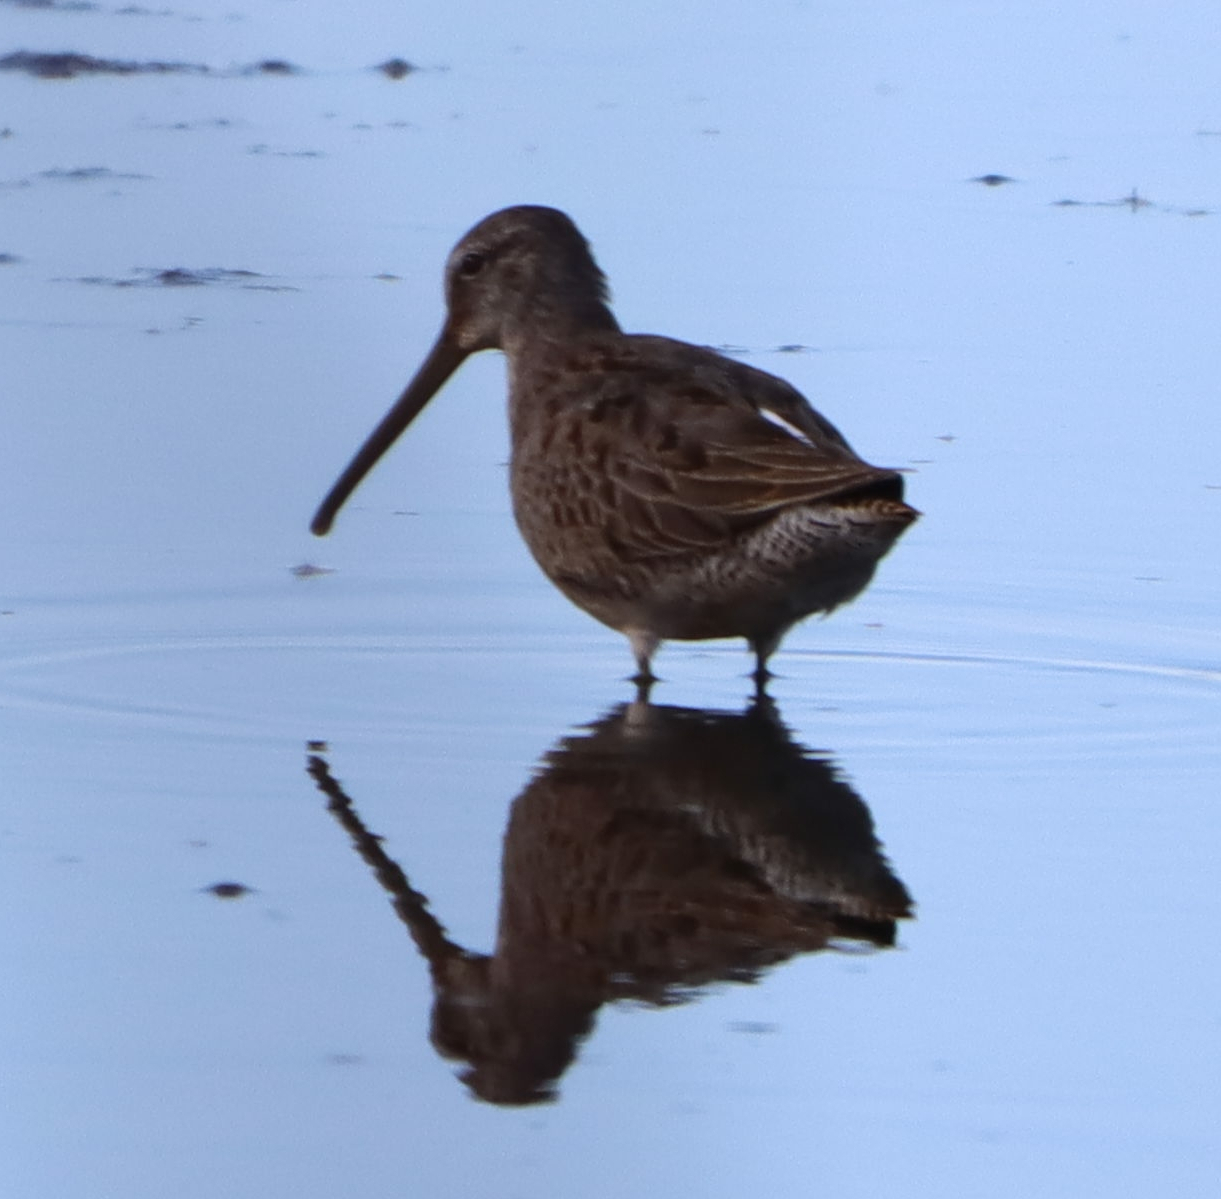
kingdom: Animalia
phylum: Chordata
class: Aves
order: Charadriiformes
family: Scolopacidae
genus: Limnodromus
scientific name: Limnodromus scolopaceus
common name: Long-billed dowitcher
